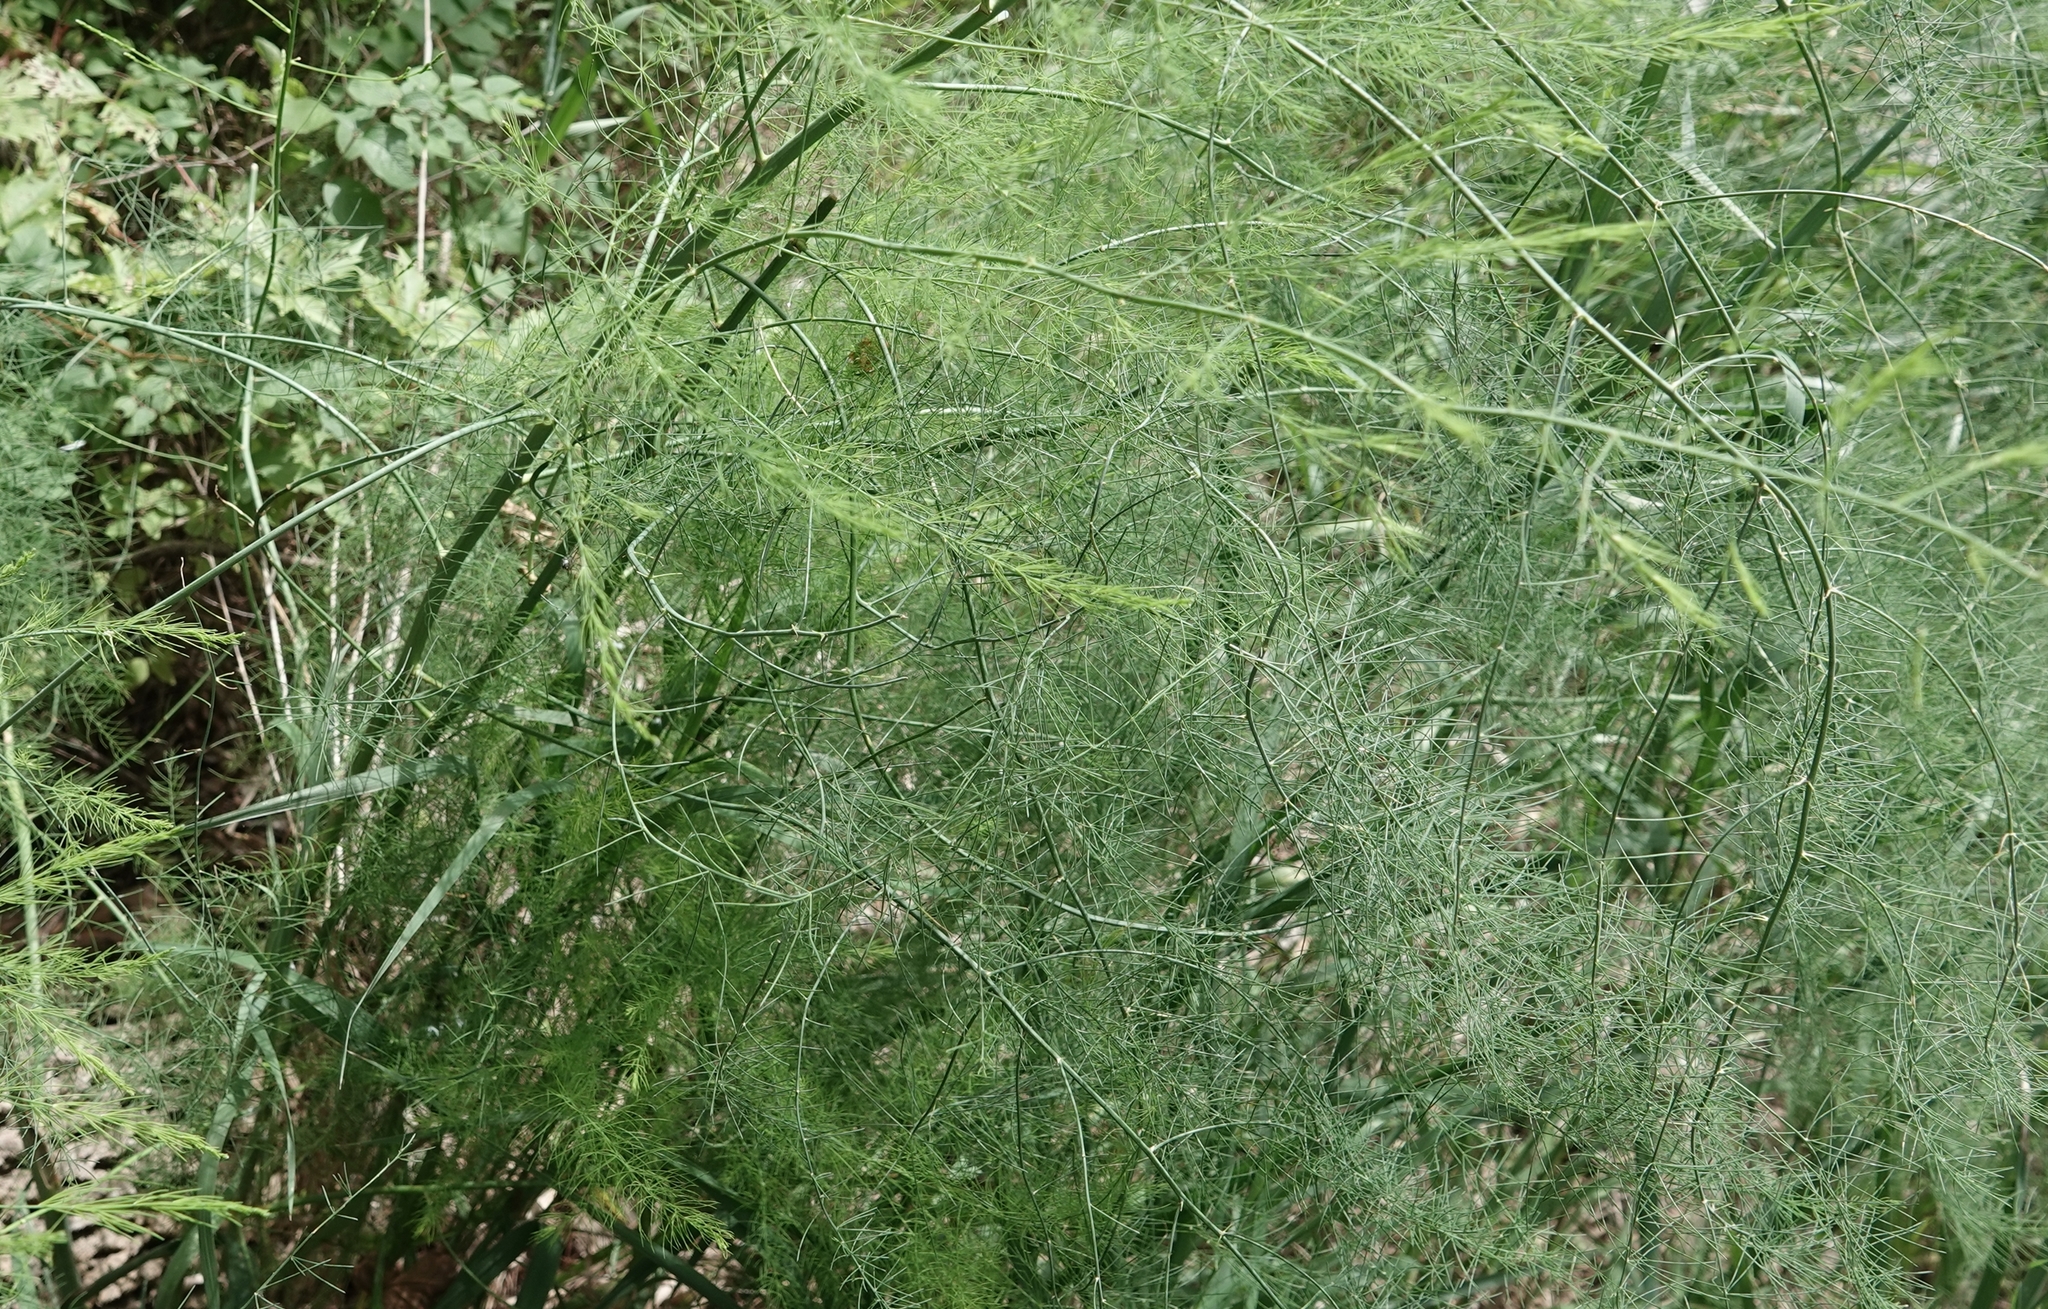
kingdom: Plantae
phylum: Tracheophyta
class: Liliopsida
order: Asparagales
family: Asparagaceae
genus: Asparagus
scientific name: Asparagus officinalis
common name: Garden asparagus
